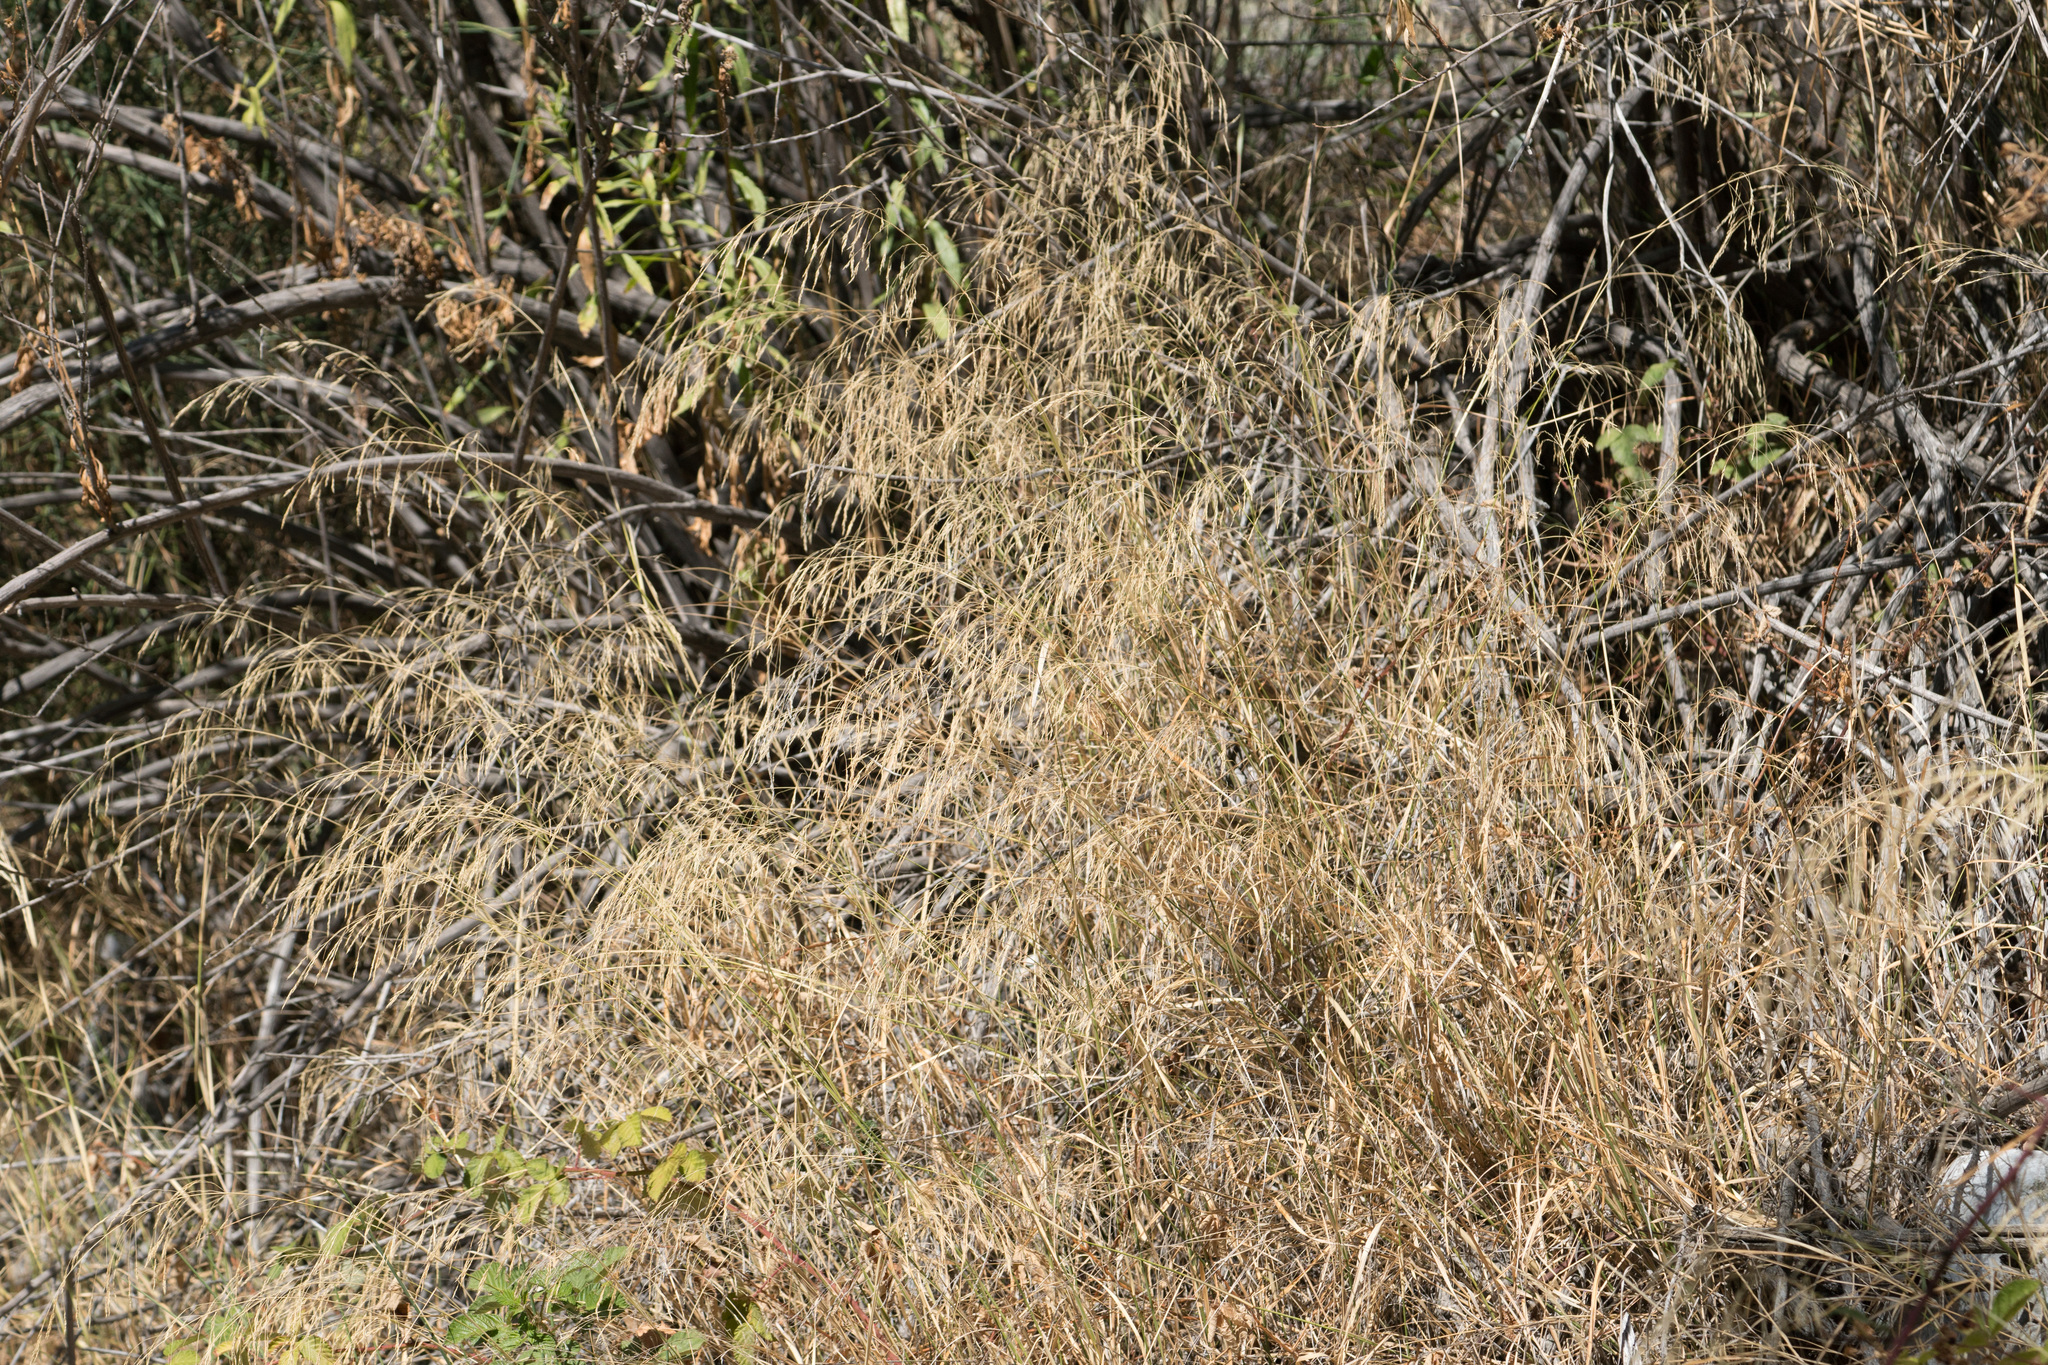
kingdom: Plantae
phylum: Tracheophyta
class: Liliopsida
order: Poales
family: Poaceae
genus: Oloptum
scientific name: Oloptum miliaceum
